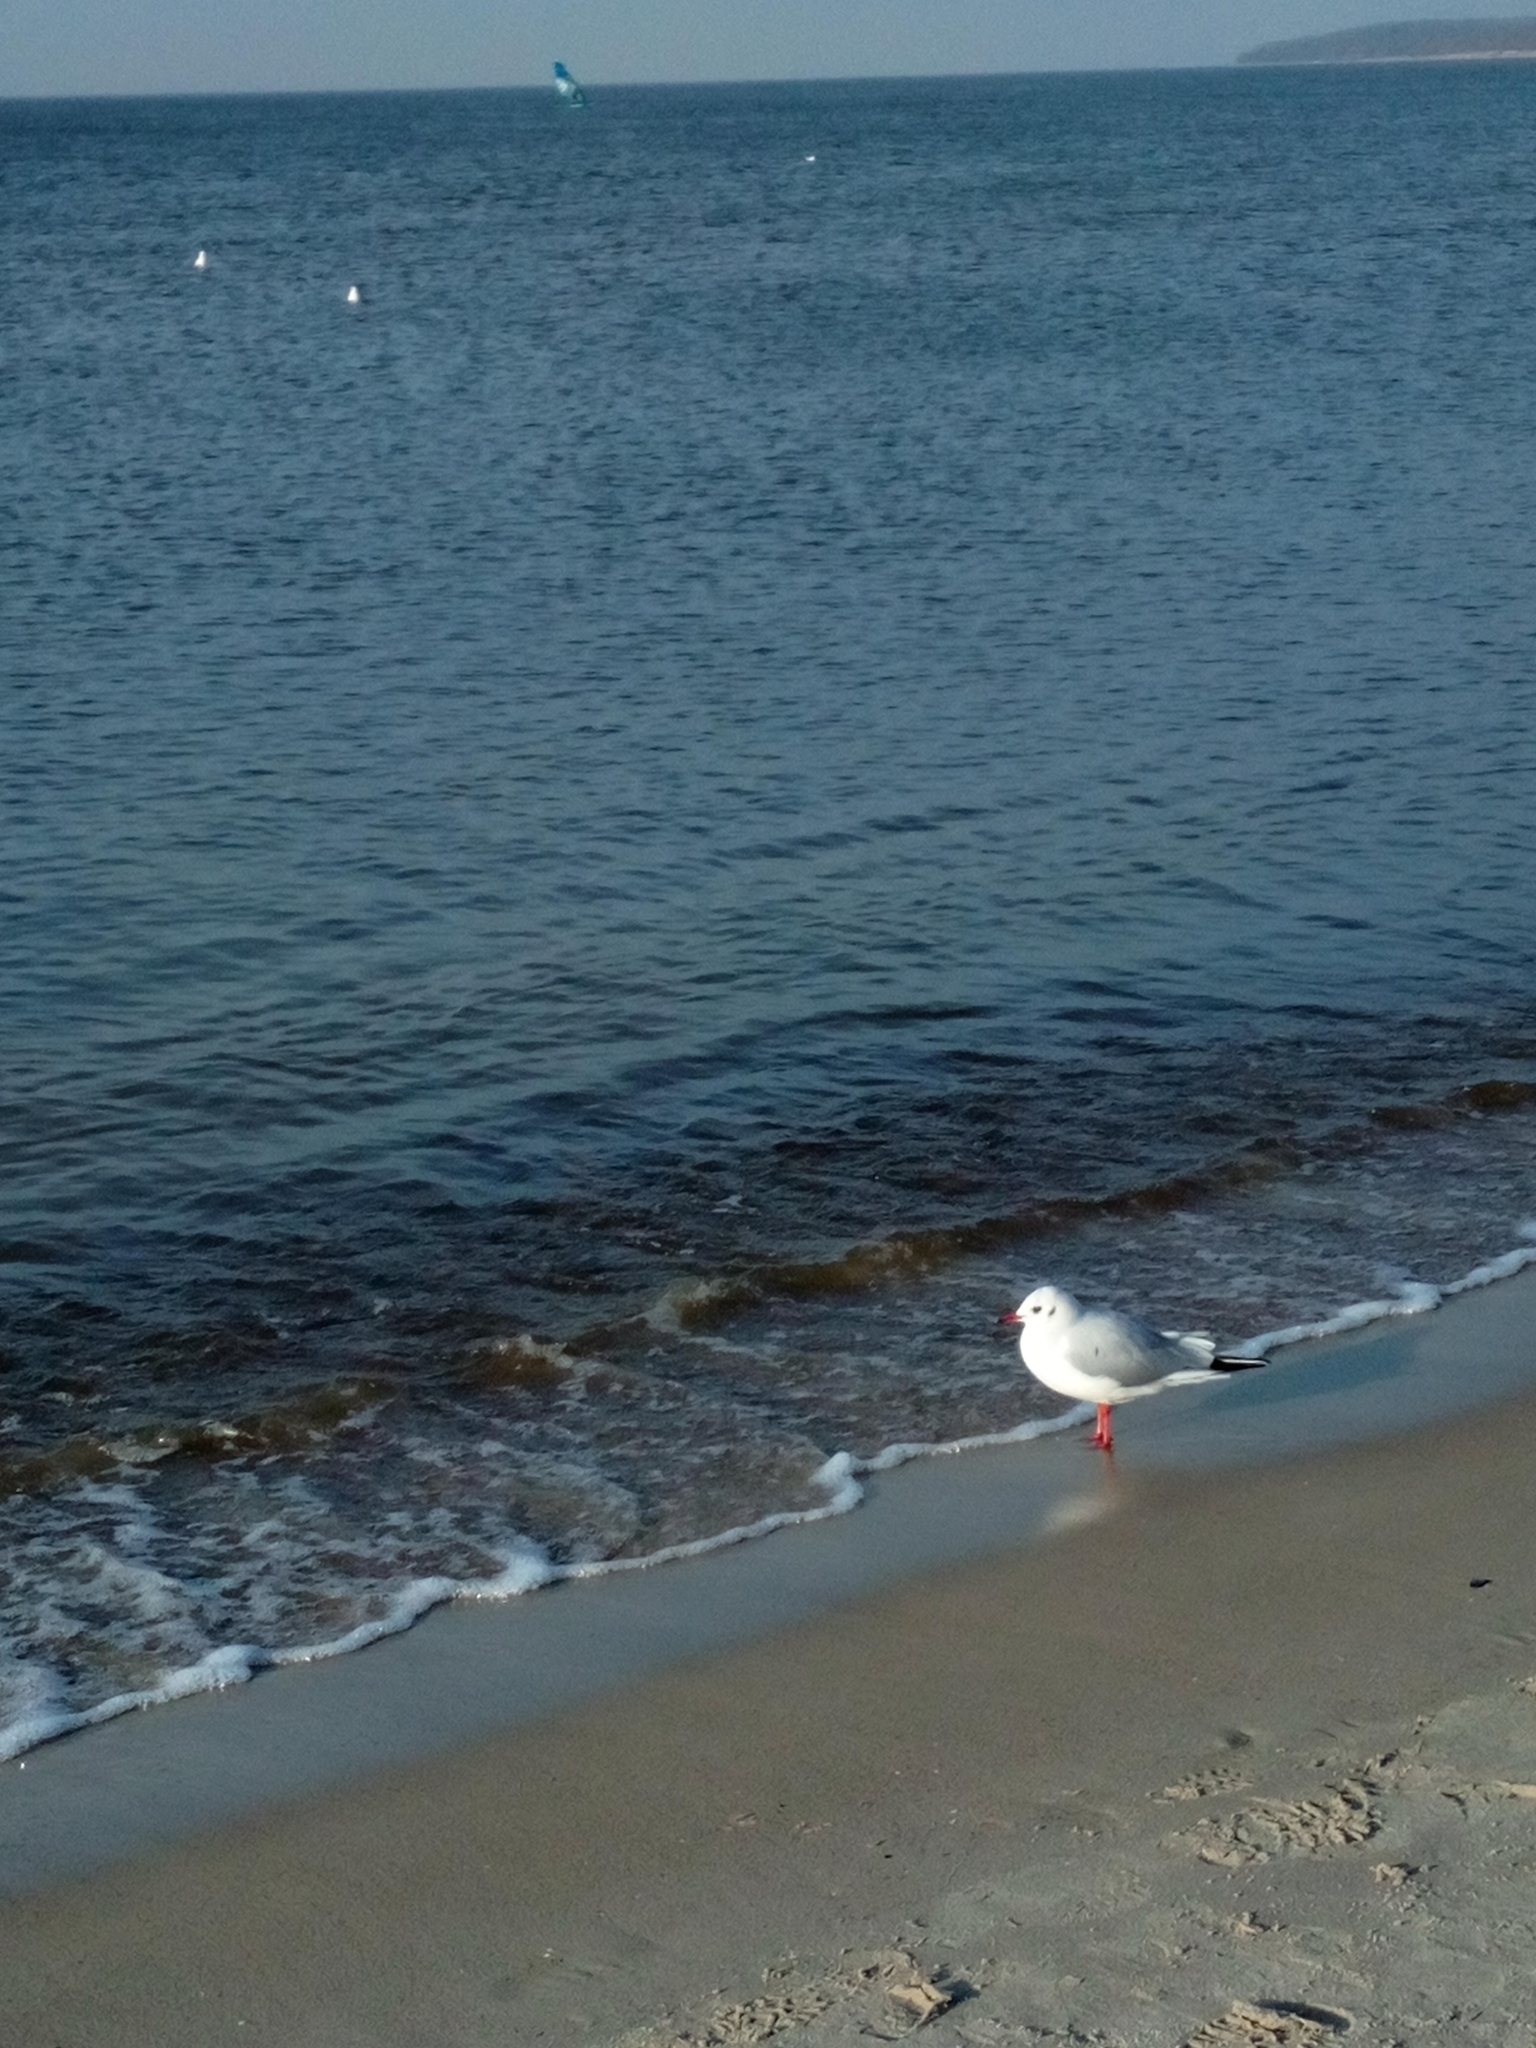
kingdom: Animalia
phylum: Chordata
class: Aves
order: Charadriiformes
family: Laridae
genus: Chroicocephalus
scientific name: Chroicocephalus ridibundus
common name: Black-headed gull
